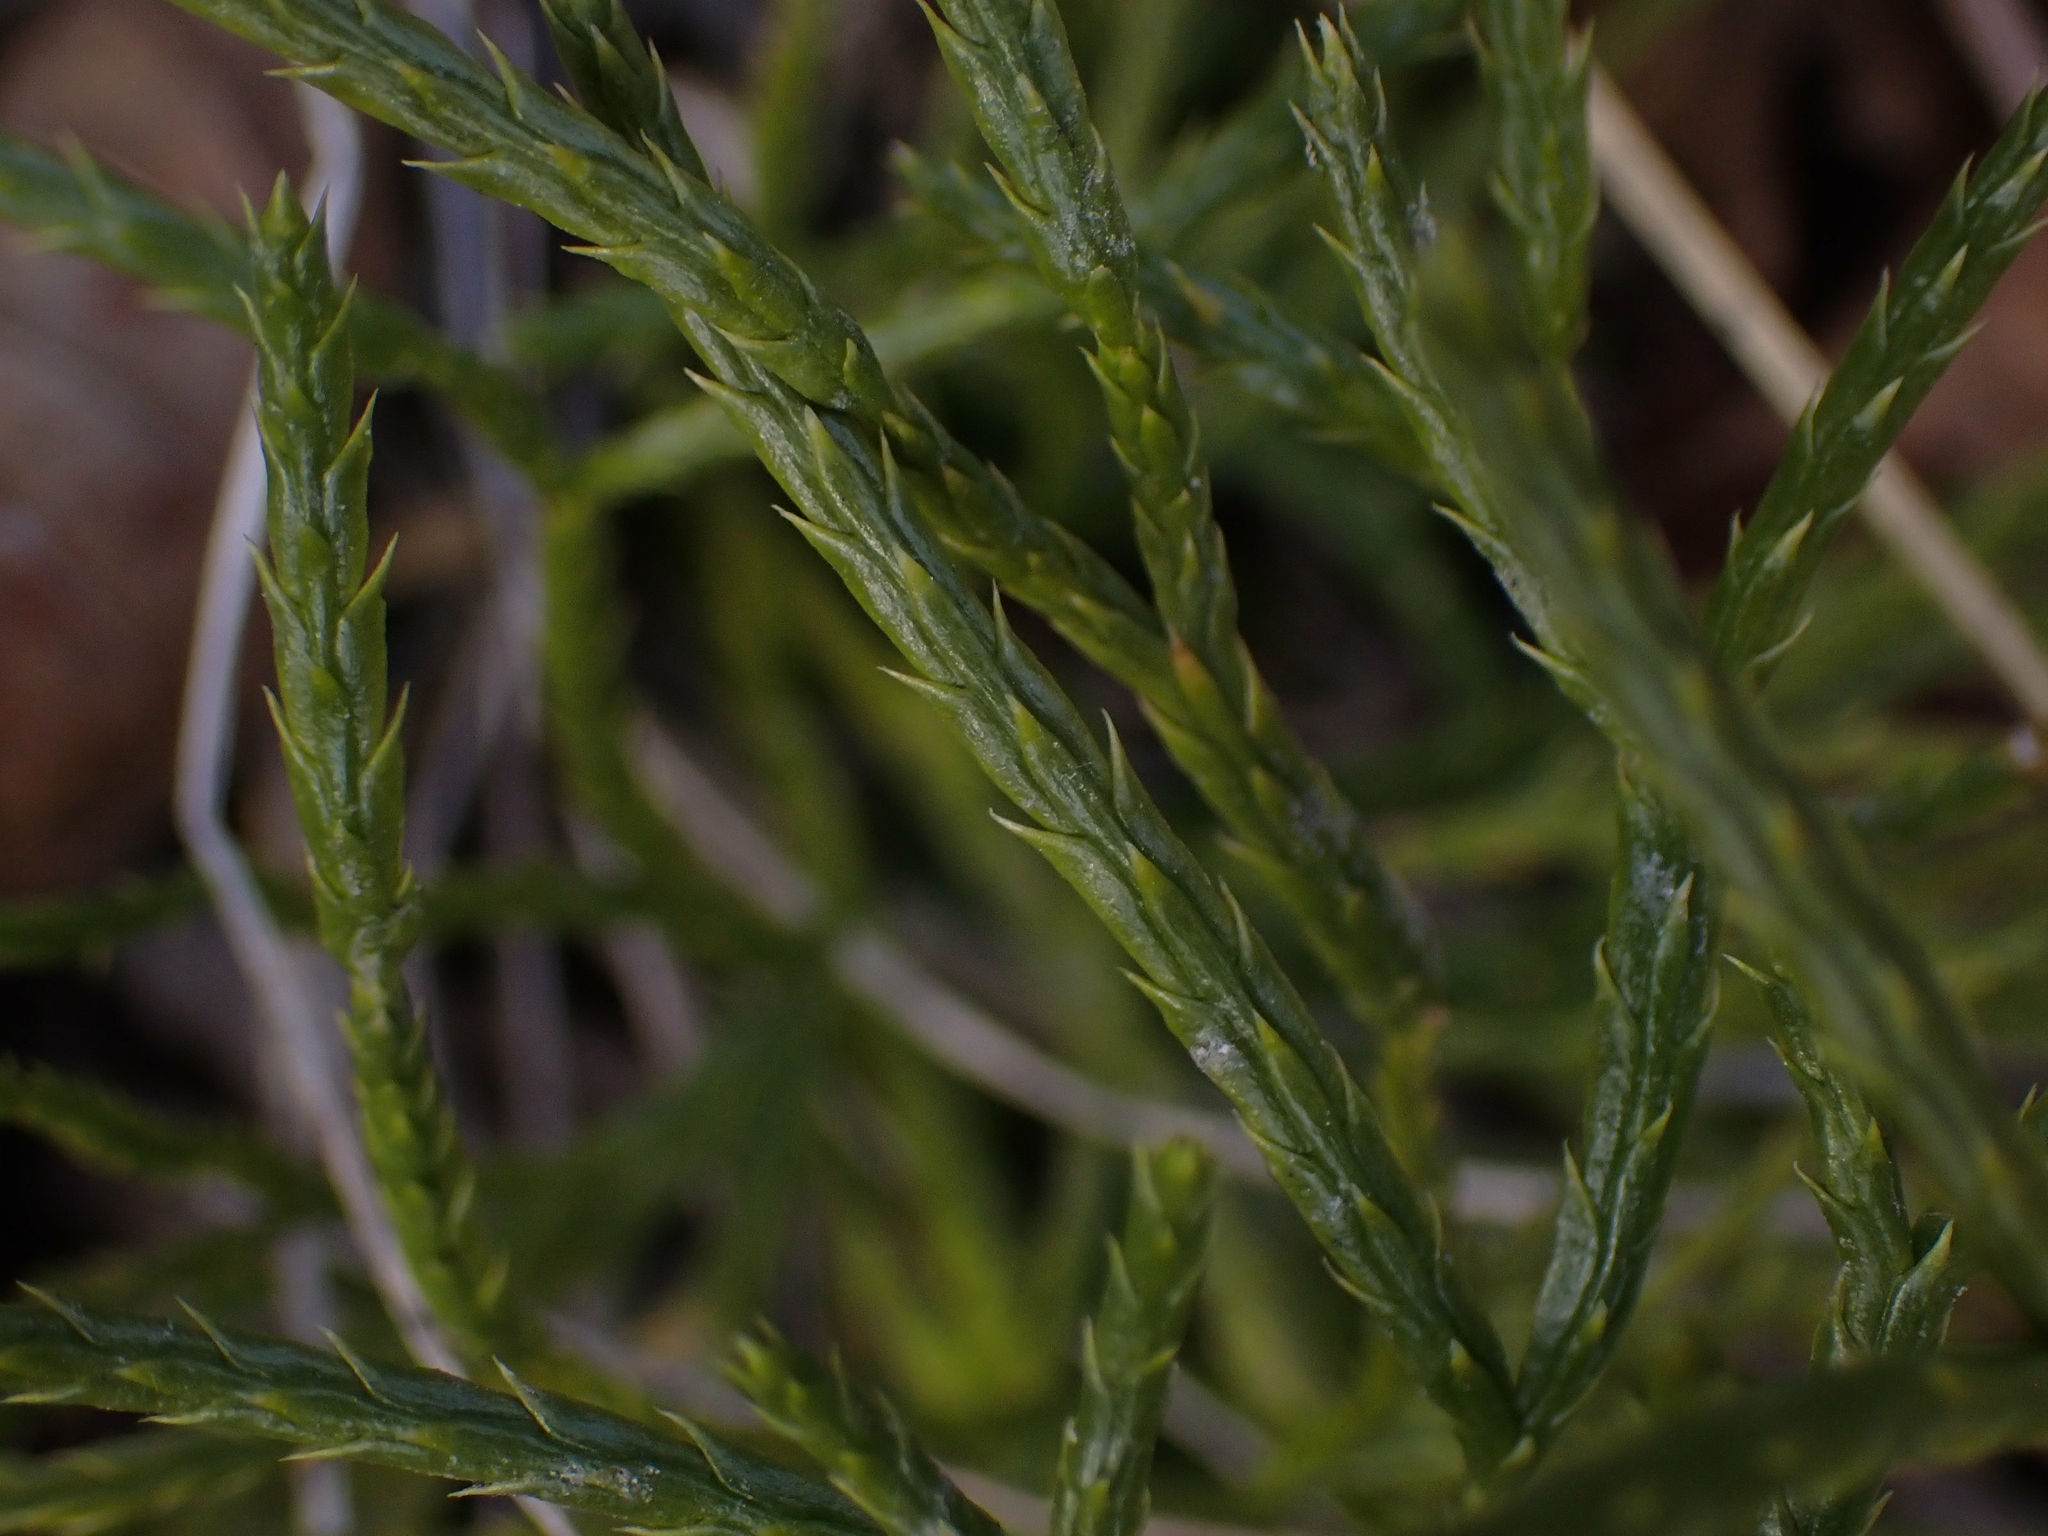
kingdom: Plantae
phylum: Tracheophyta
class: Lycopodiopsida
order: Lycopodiales
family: Lycopodiaceae
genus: Diphasiastrum
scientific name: Diphasiastrum complanatum
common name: Northern running-pine
